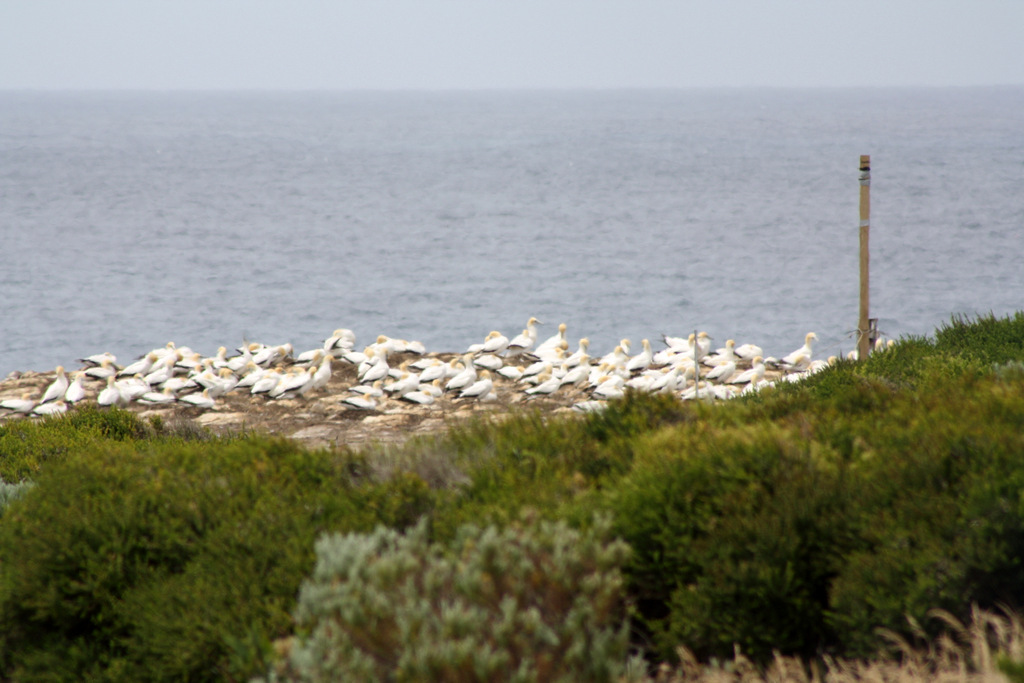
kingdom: Animalia
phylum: Chordata
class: Aves
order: Suliformes
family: Sulidae
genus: Morus
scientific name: Morus serrator
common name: Australasian gannet
